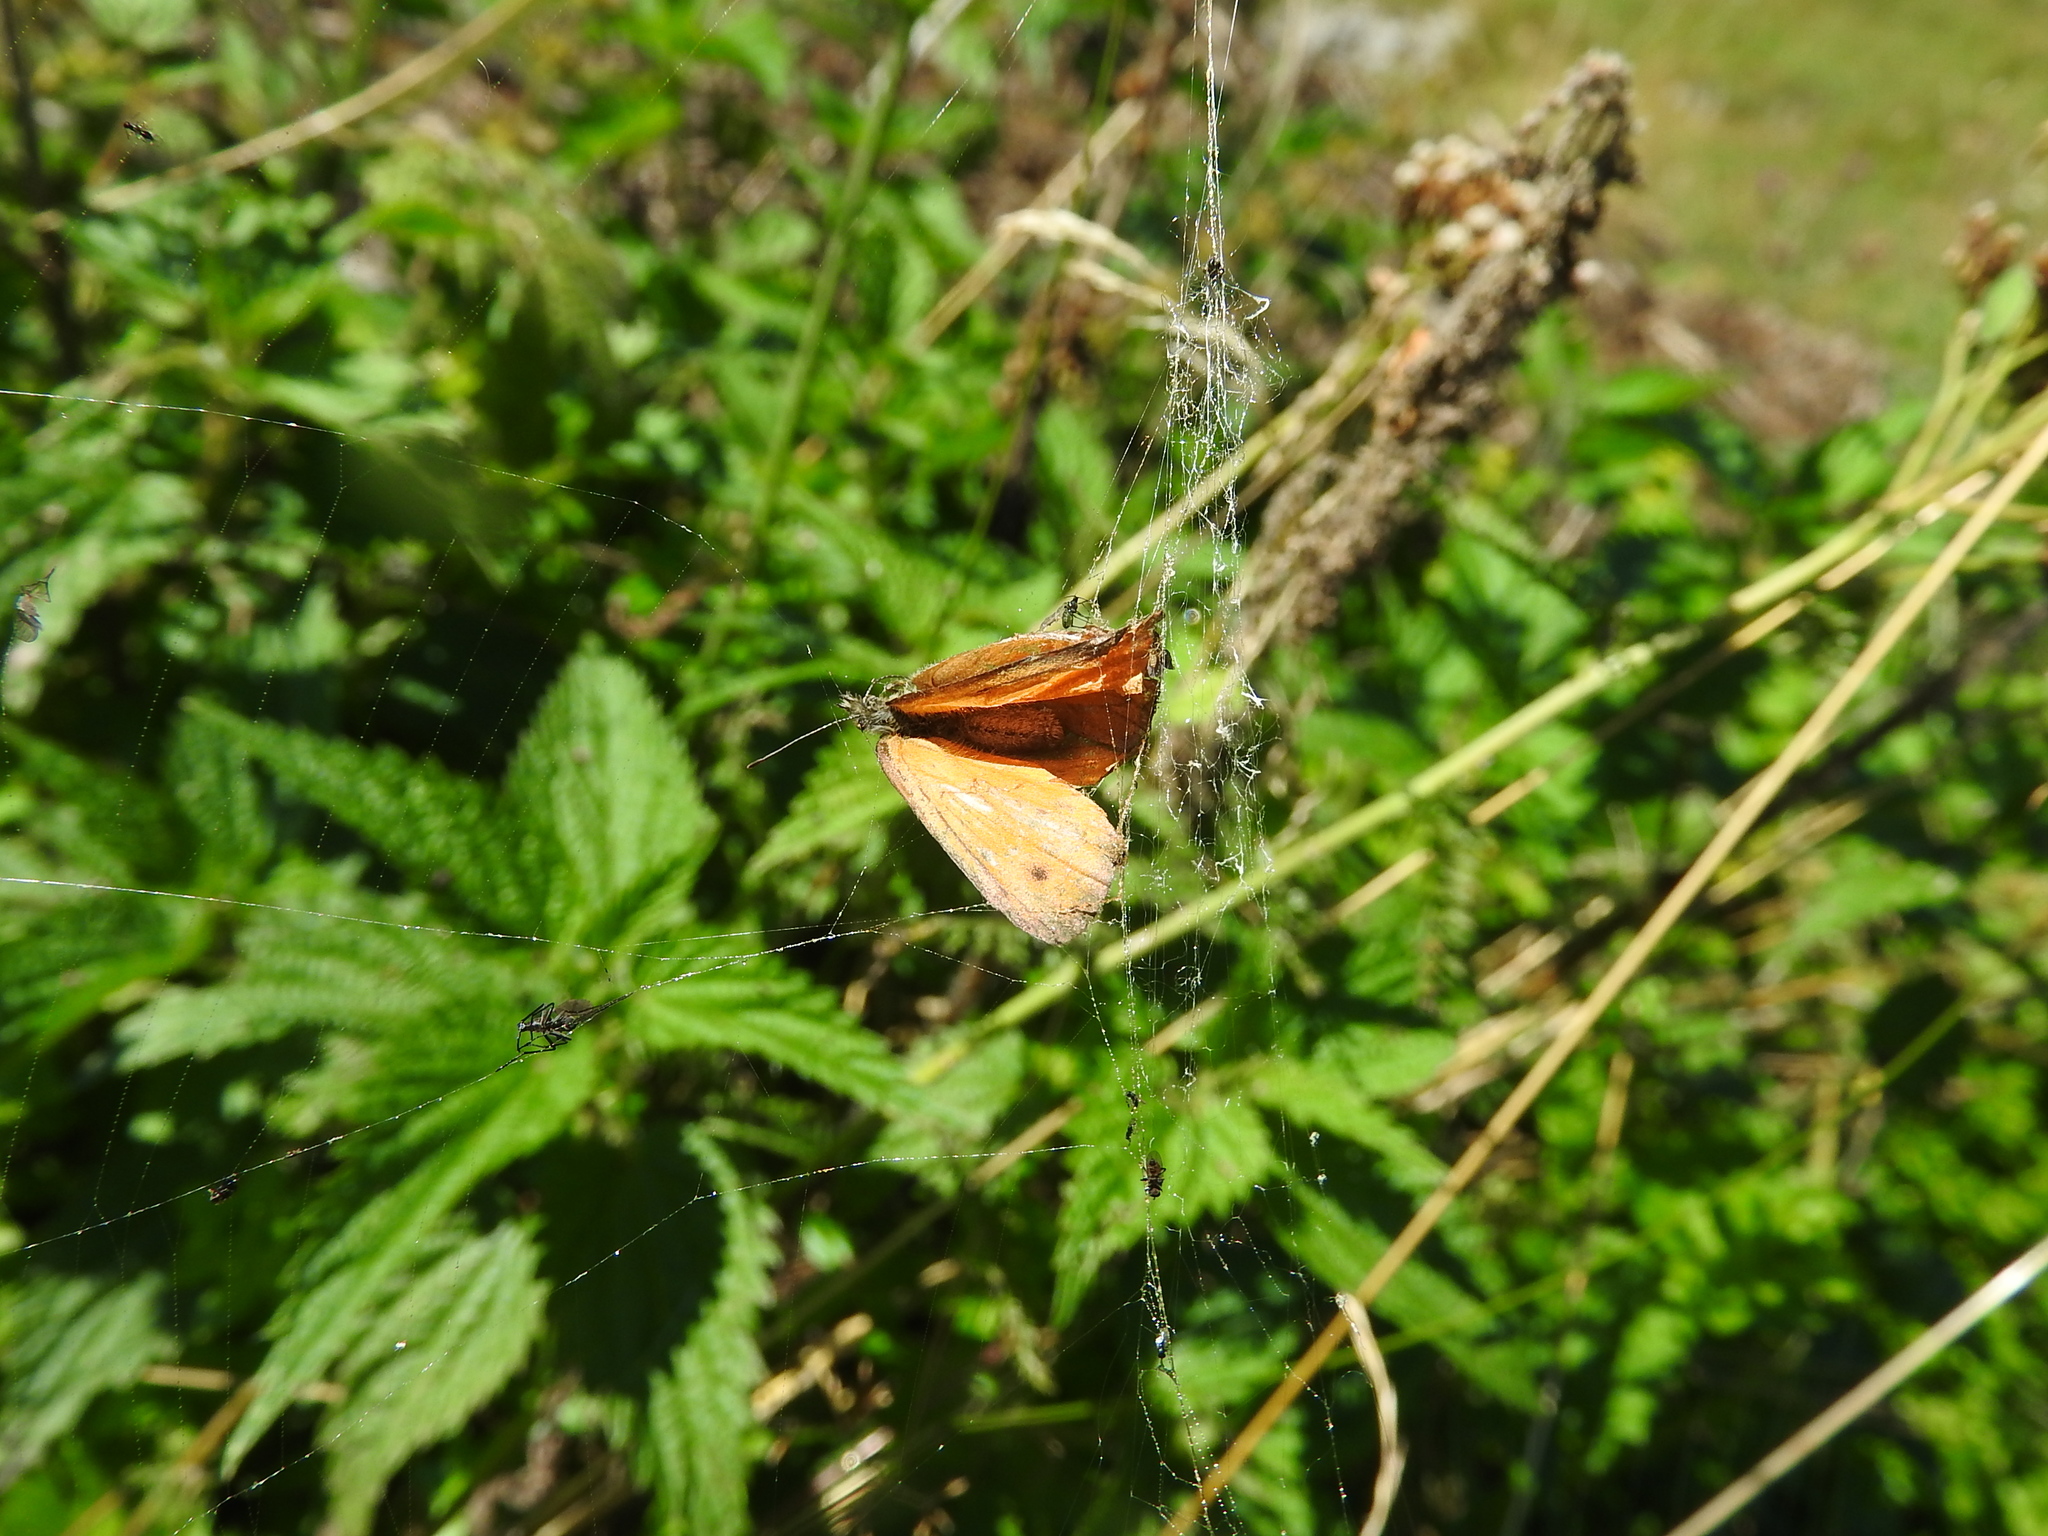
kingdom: Animalia
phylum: Arthropoda
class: Insecta
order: Lepidoptera
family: Nymphalidae
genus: Coenonympha
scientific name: Coenonympha pamphilus
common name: Small heath
